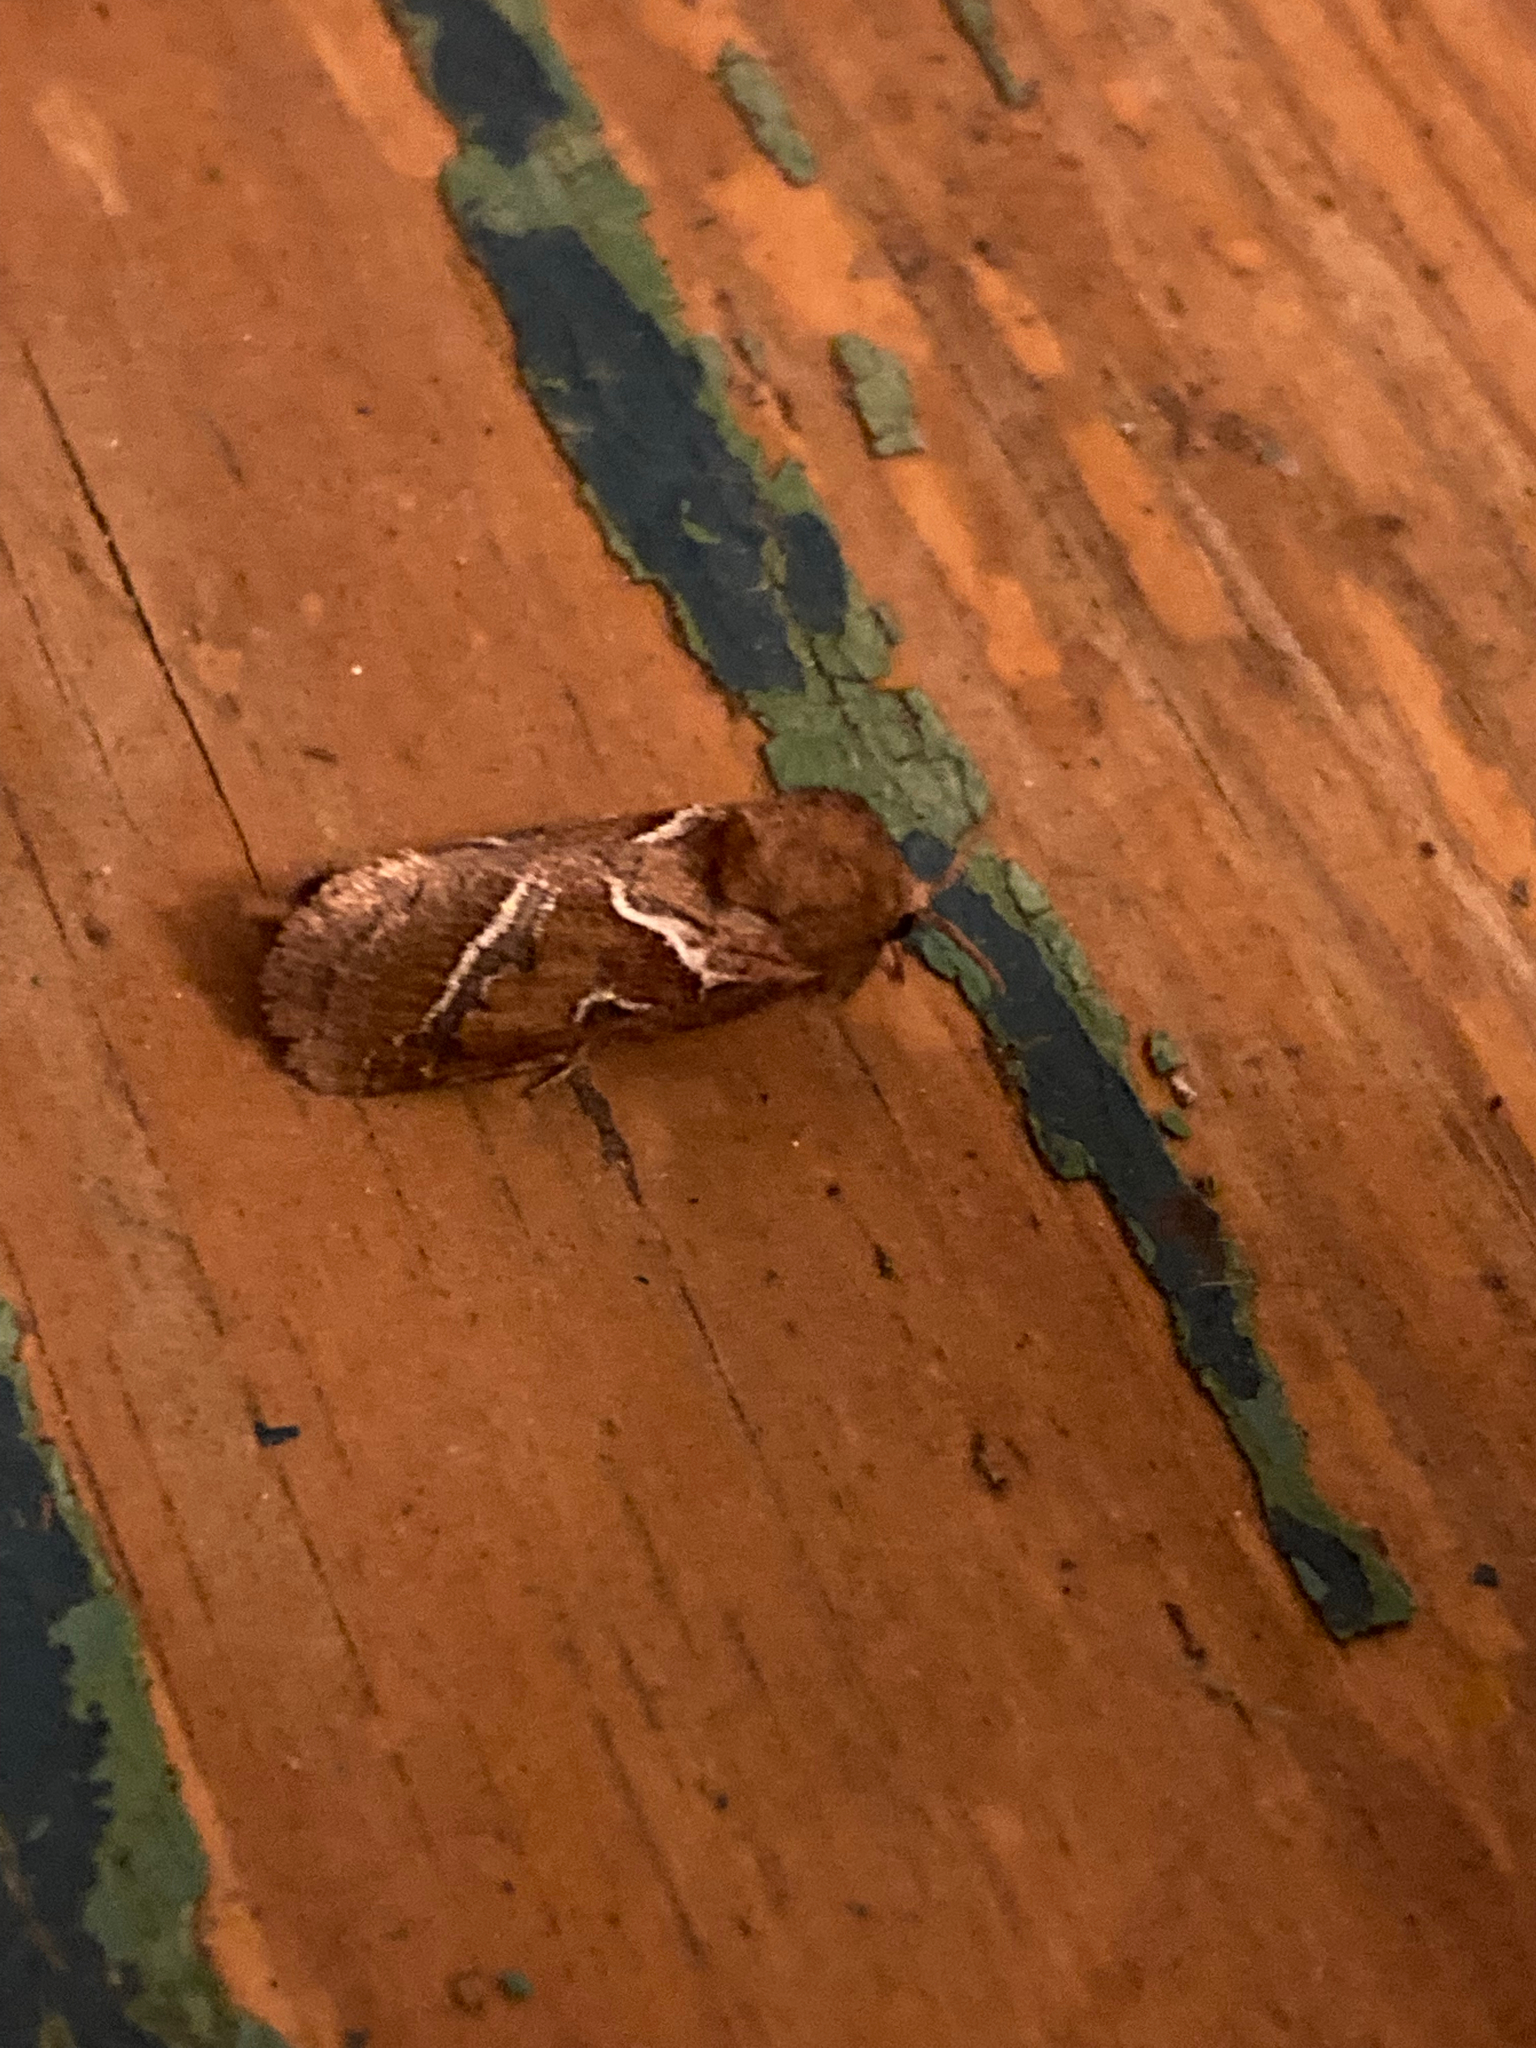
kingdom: Animalia
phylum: Arthropoda
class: Insecta
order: Lepidoptera
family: Hepialidae
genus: Triodia
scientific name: Triodia sylvina
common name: Orange swift
